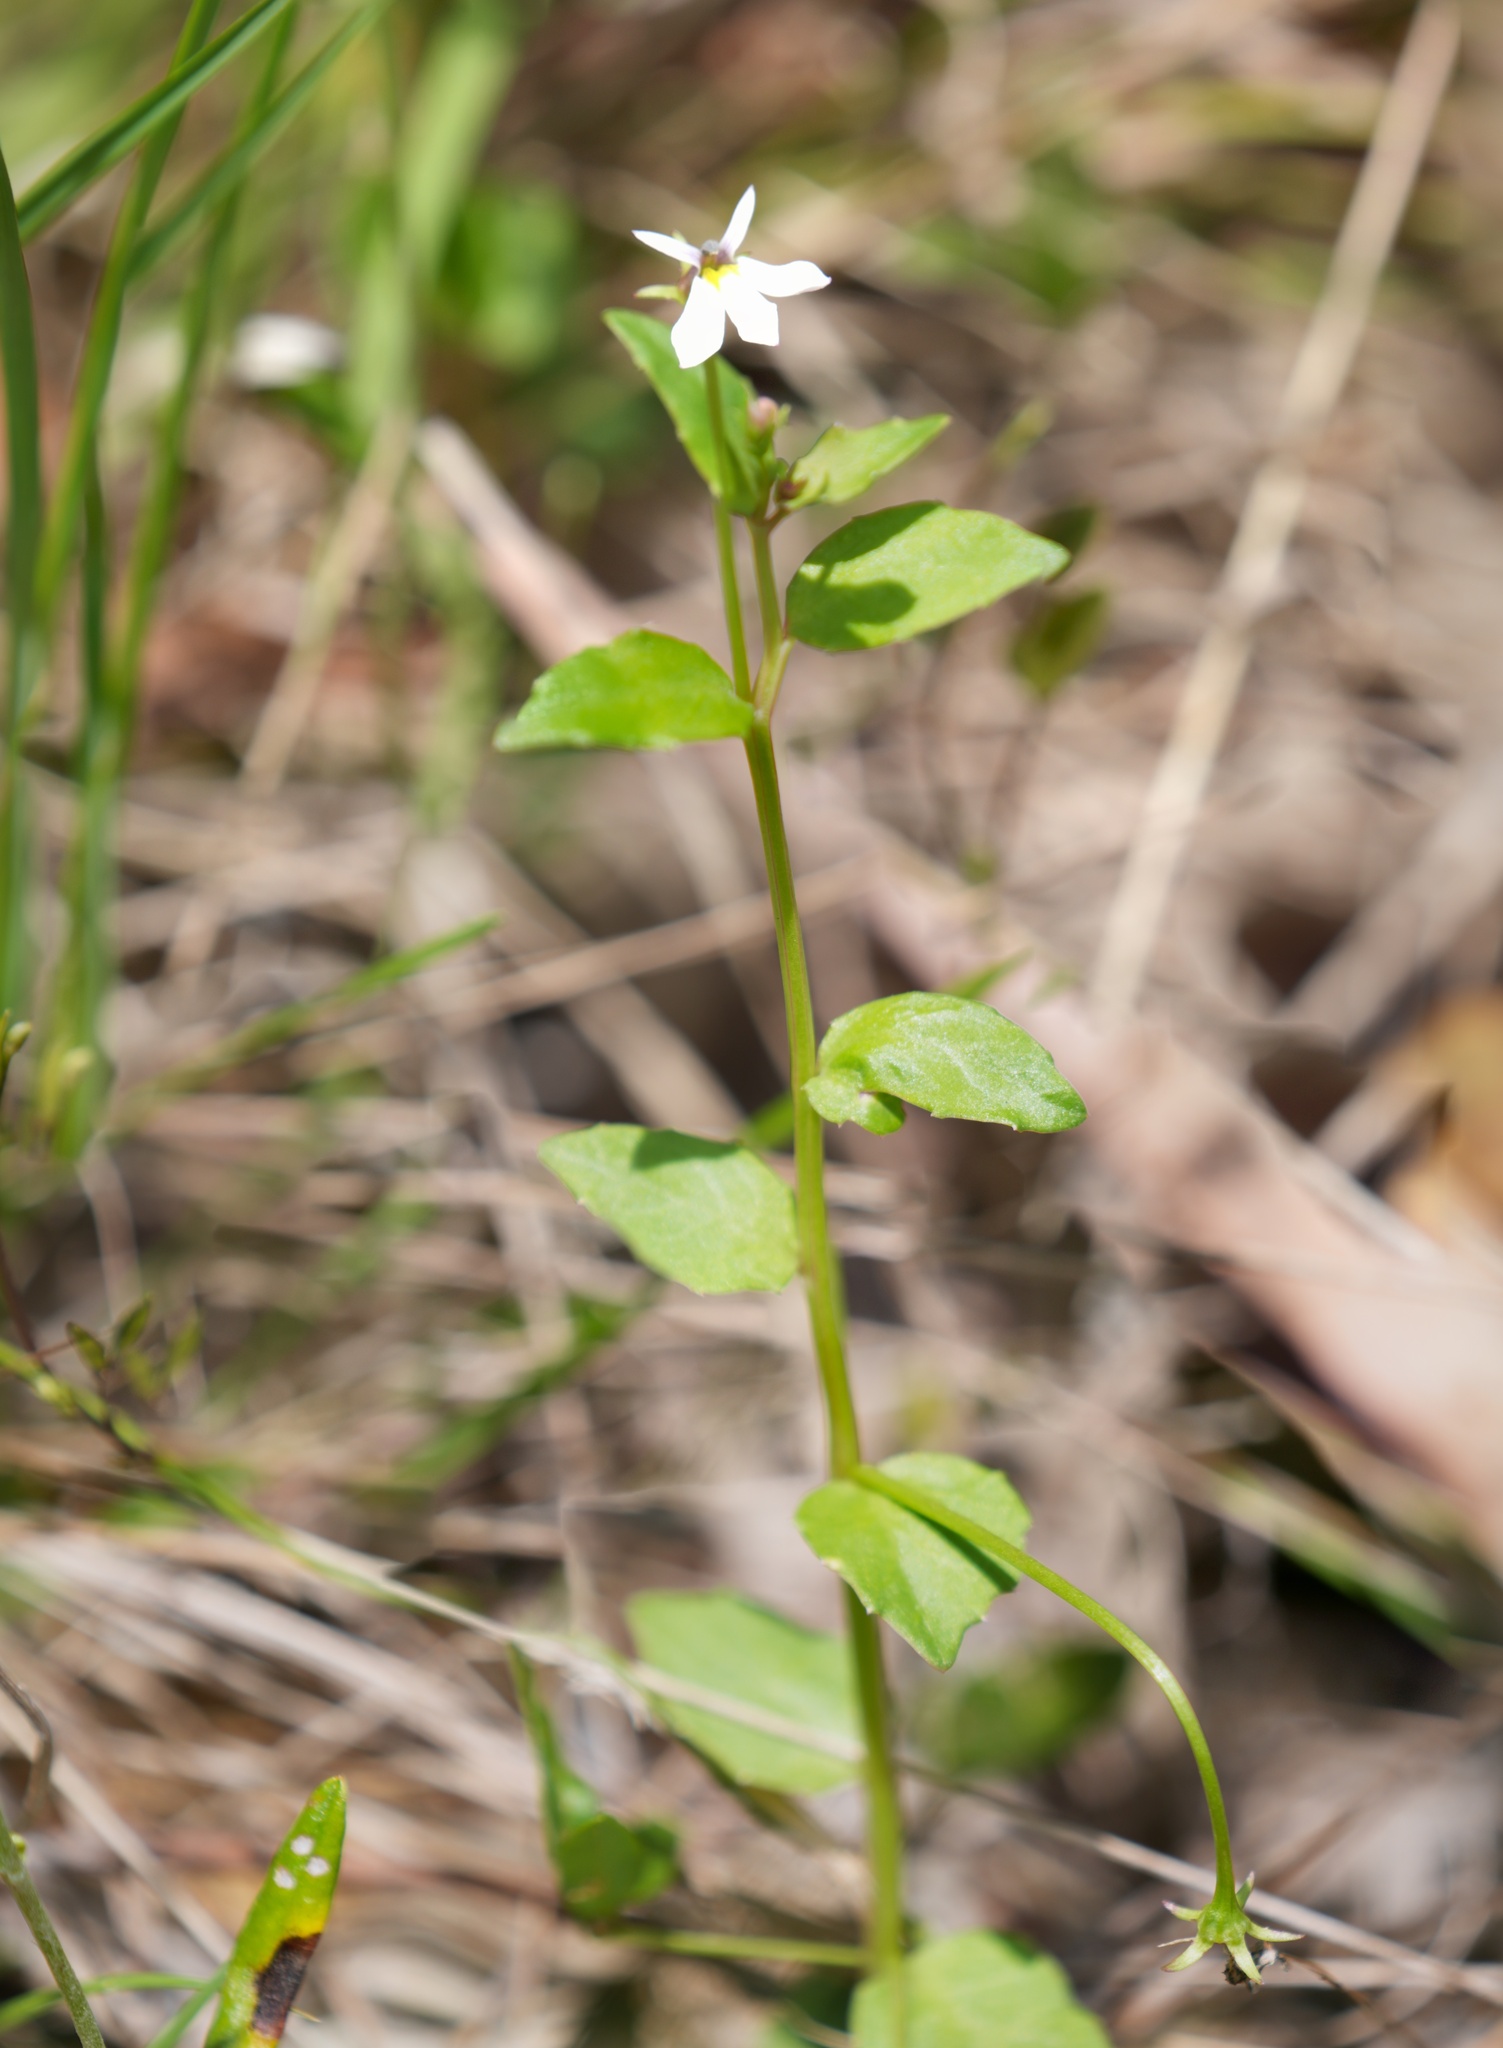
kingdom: Plantae
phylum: Tracheophyta
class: Magnoliopsida
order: Asterales
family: Campanulaceae
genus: Lobelia
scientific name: Lobelia purpurascens
